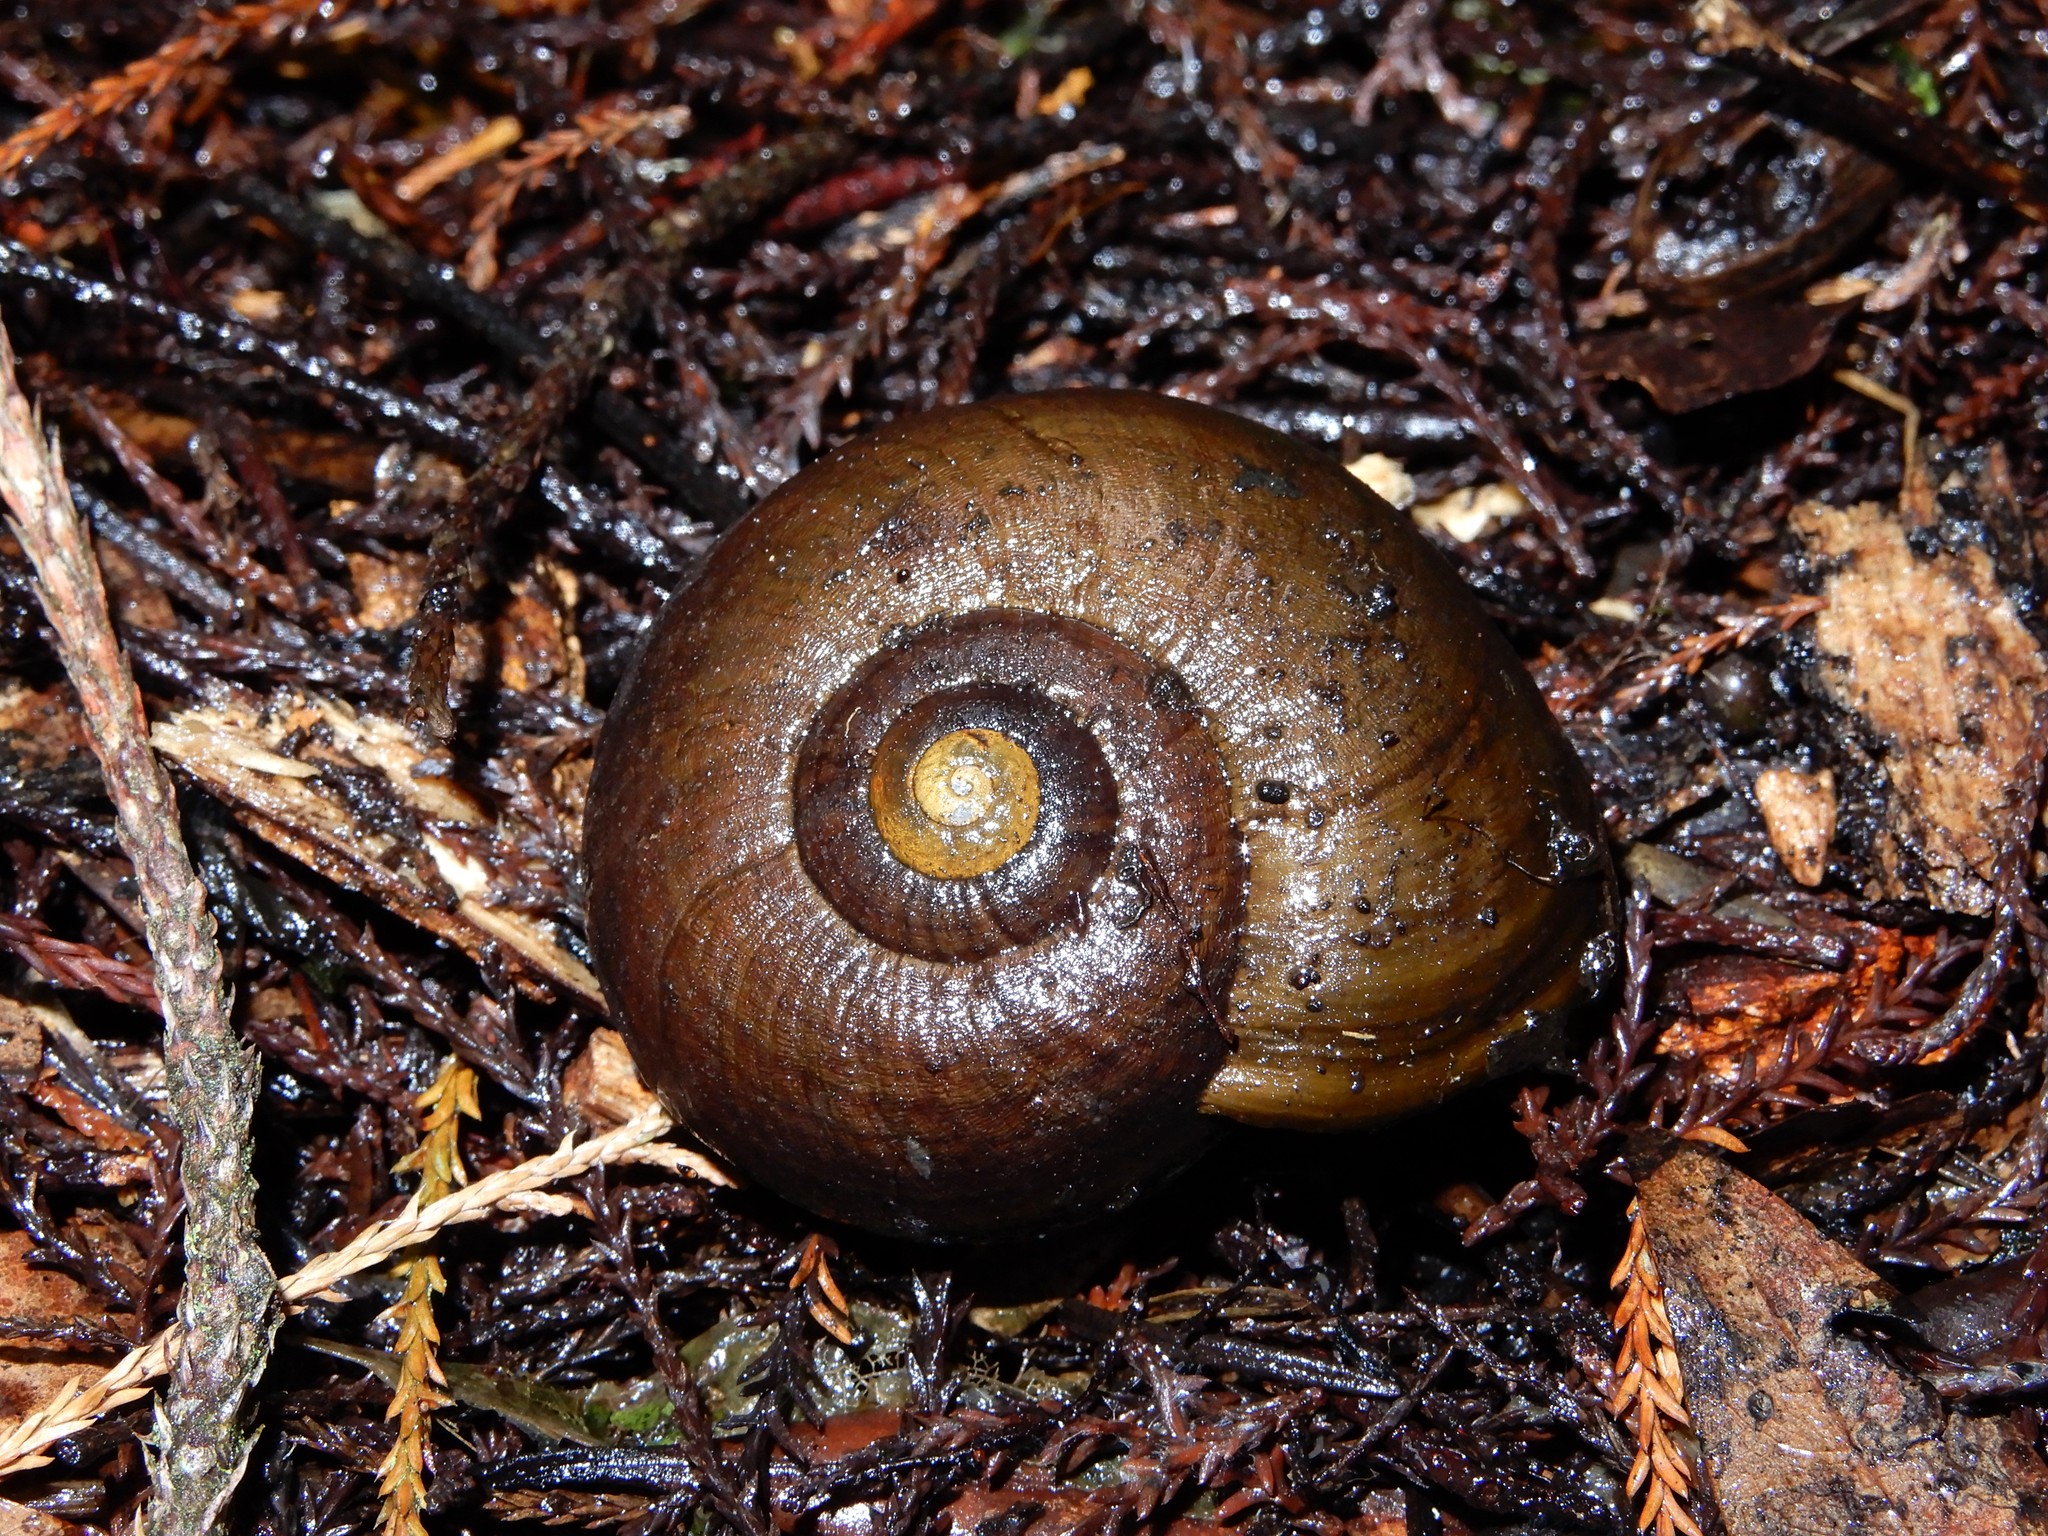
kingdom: Animalia
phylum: Mollusca
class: Gastropoda
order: Stylommatophora
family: Rhytididae
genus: Powelliphanta
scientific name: Powelliphanta marchanti
